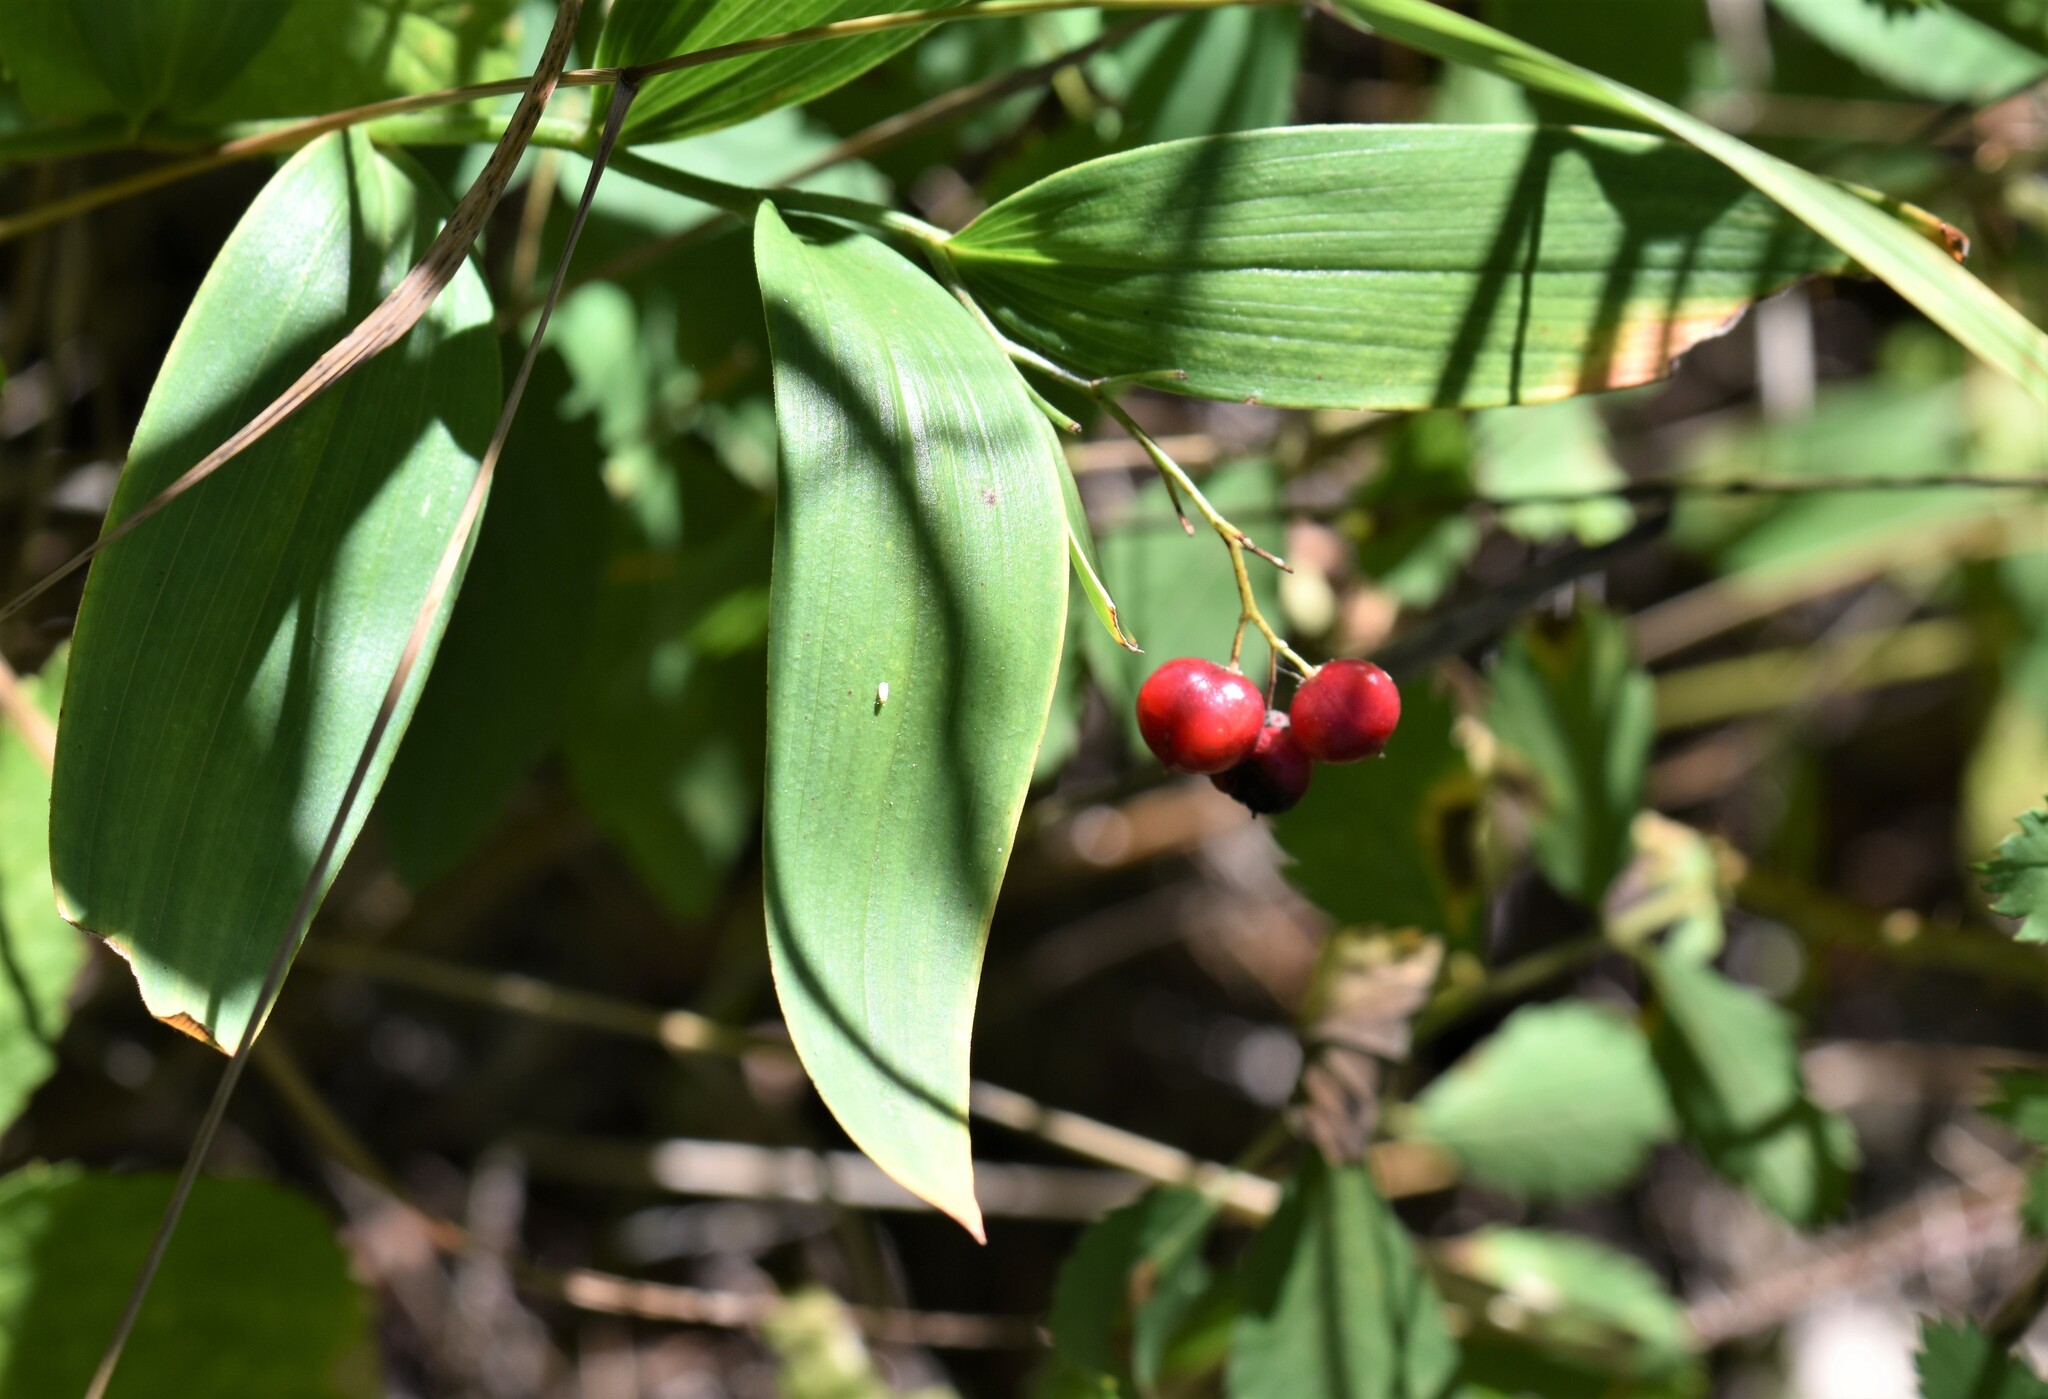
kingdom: Plantae
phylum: Tracheophyta
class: Liliopsida
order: Asparagales
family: Asparagaceae
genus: Maianthemum
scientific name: Maianthemum stellatum
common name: Little false solomon's seal
